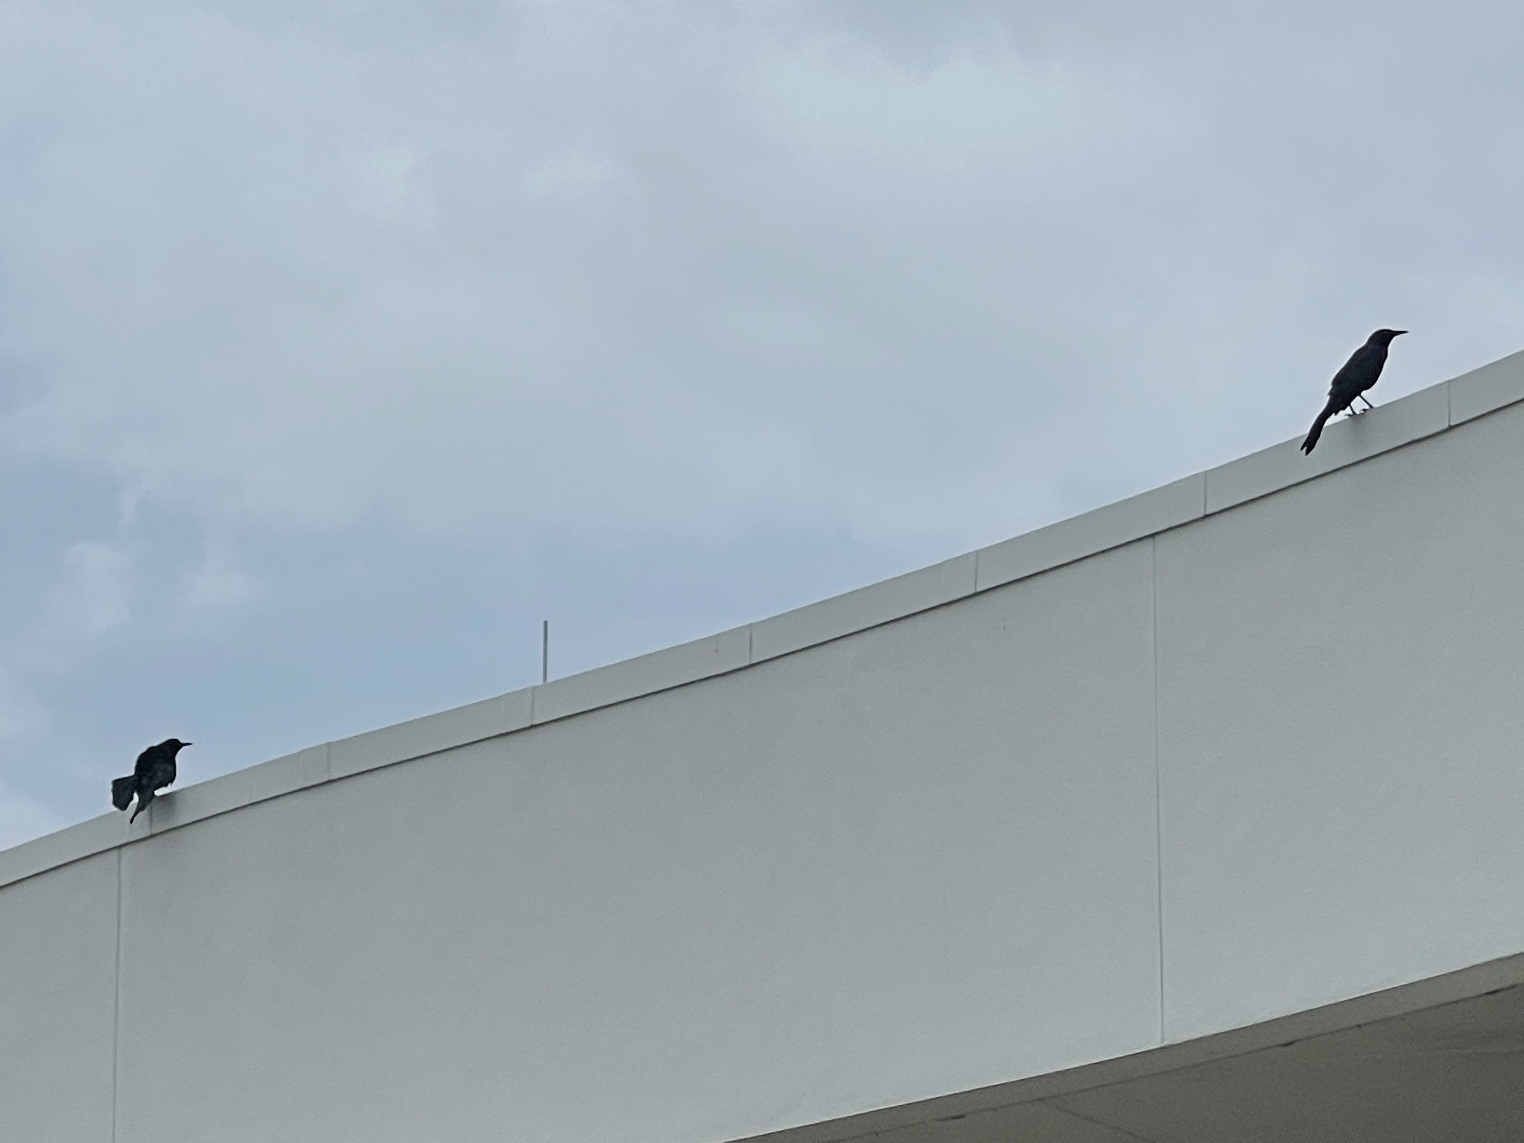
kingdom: Animalia
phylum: Chordata
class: Aves
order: Passeriformes
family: Icteridae
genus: Quiscalus
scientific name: Quiscalus mexicanus
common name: Great-tailed grackle
